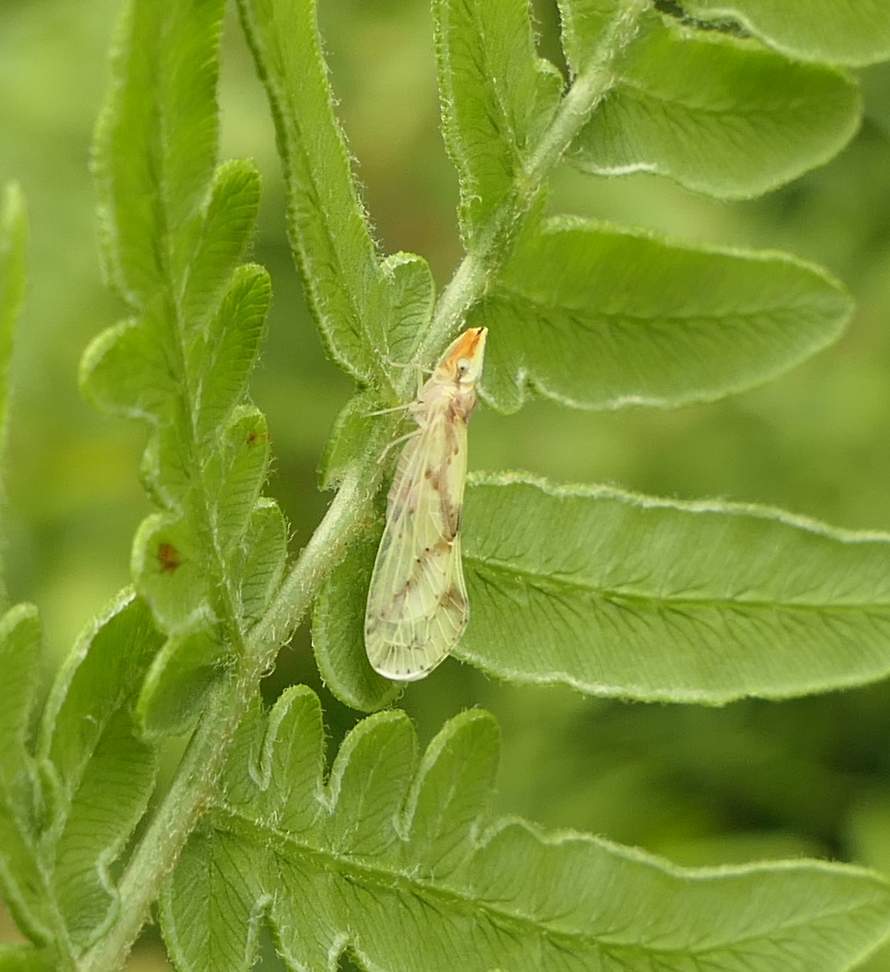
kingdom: Animalia
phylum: Arthropoda
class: Insecta
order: Hemiptera
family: Derbidae
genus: Otiocerus
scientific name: Otiocerus wolfii
